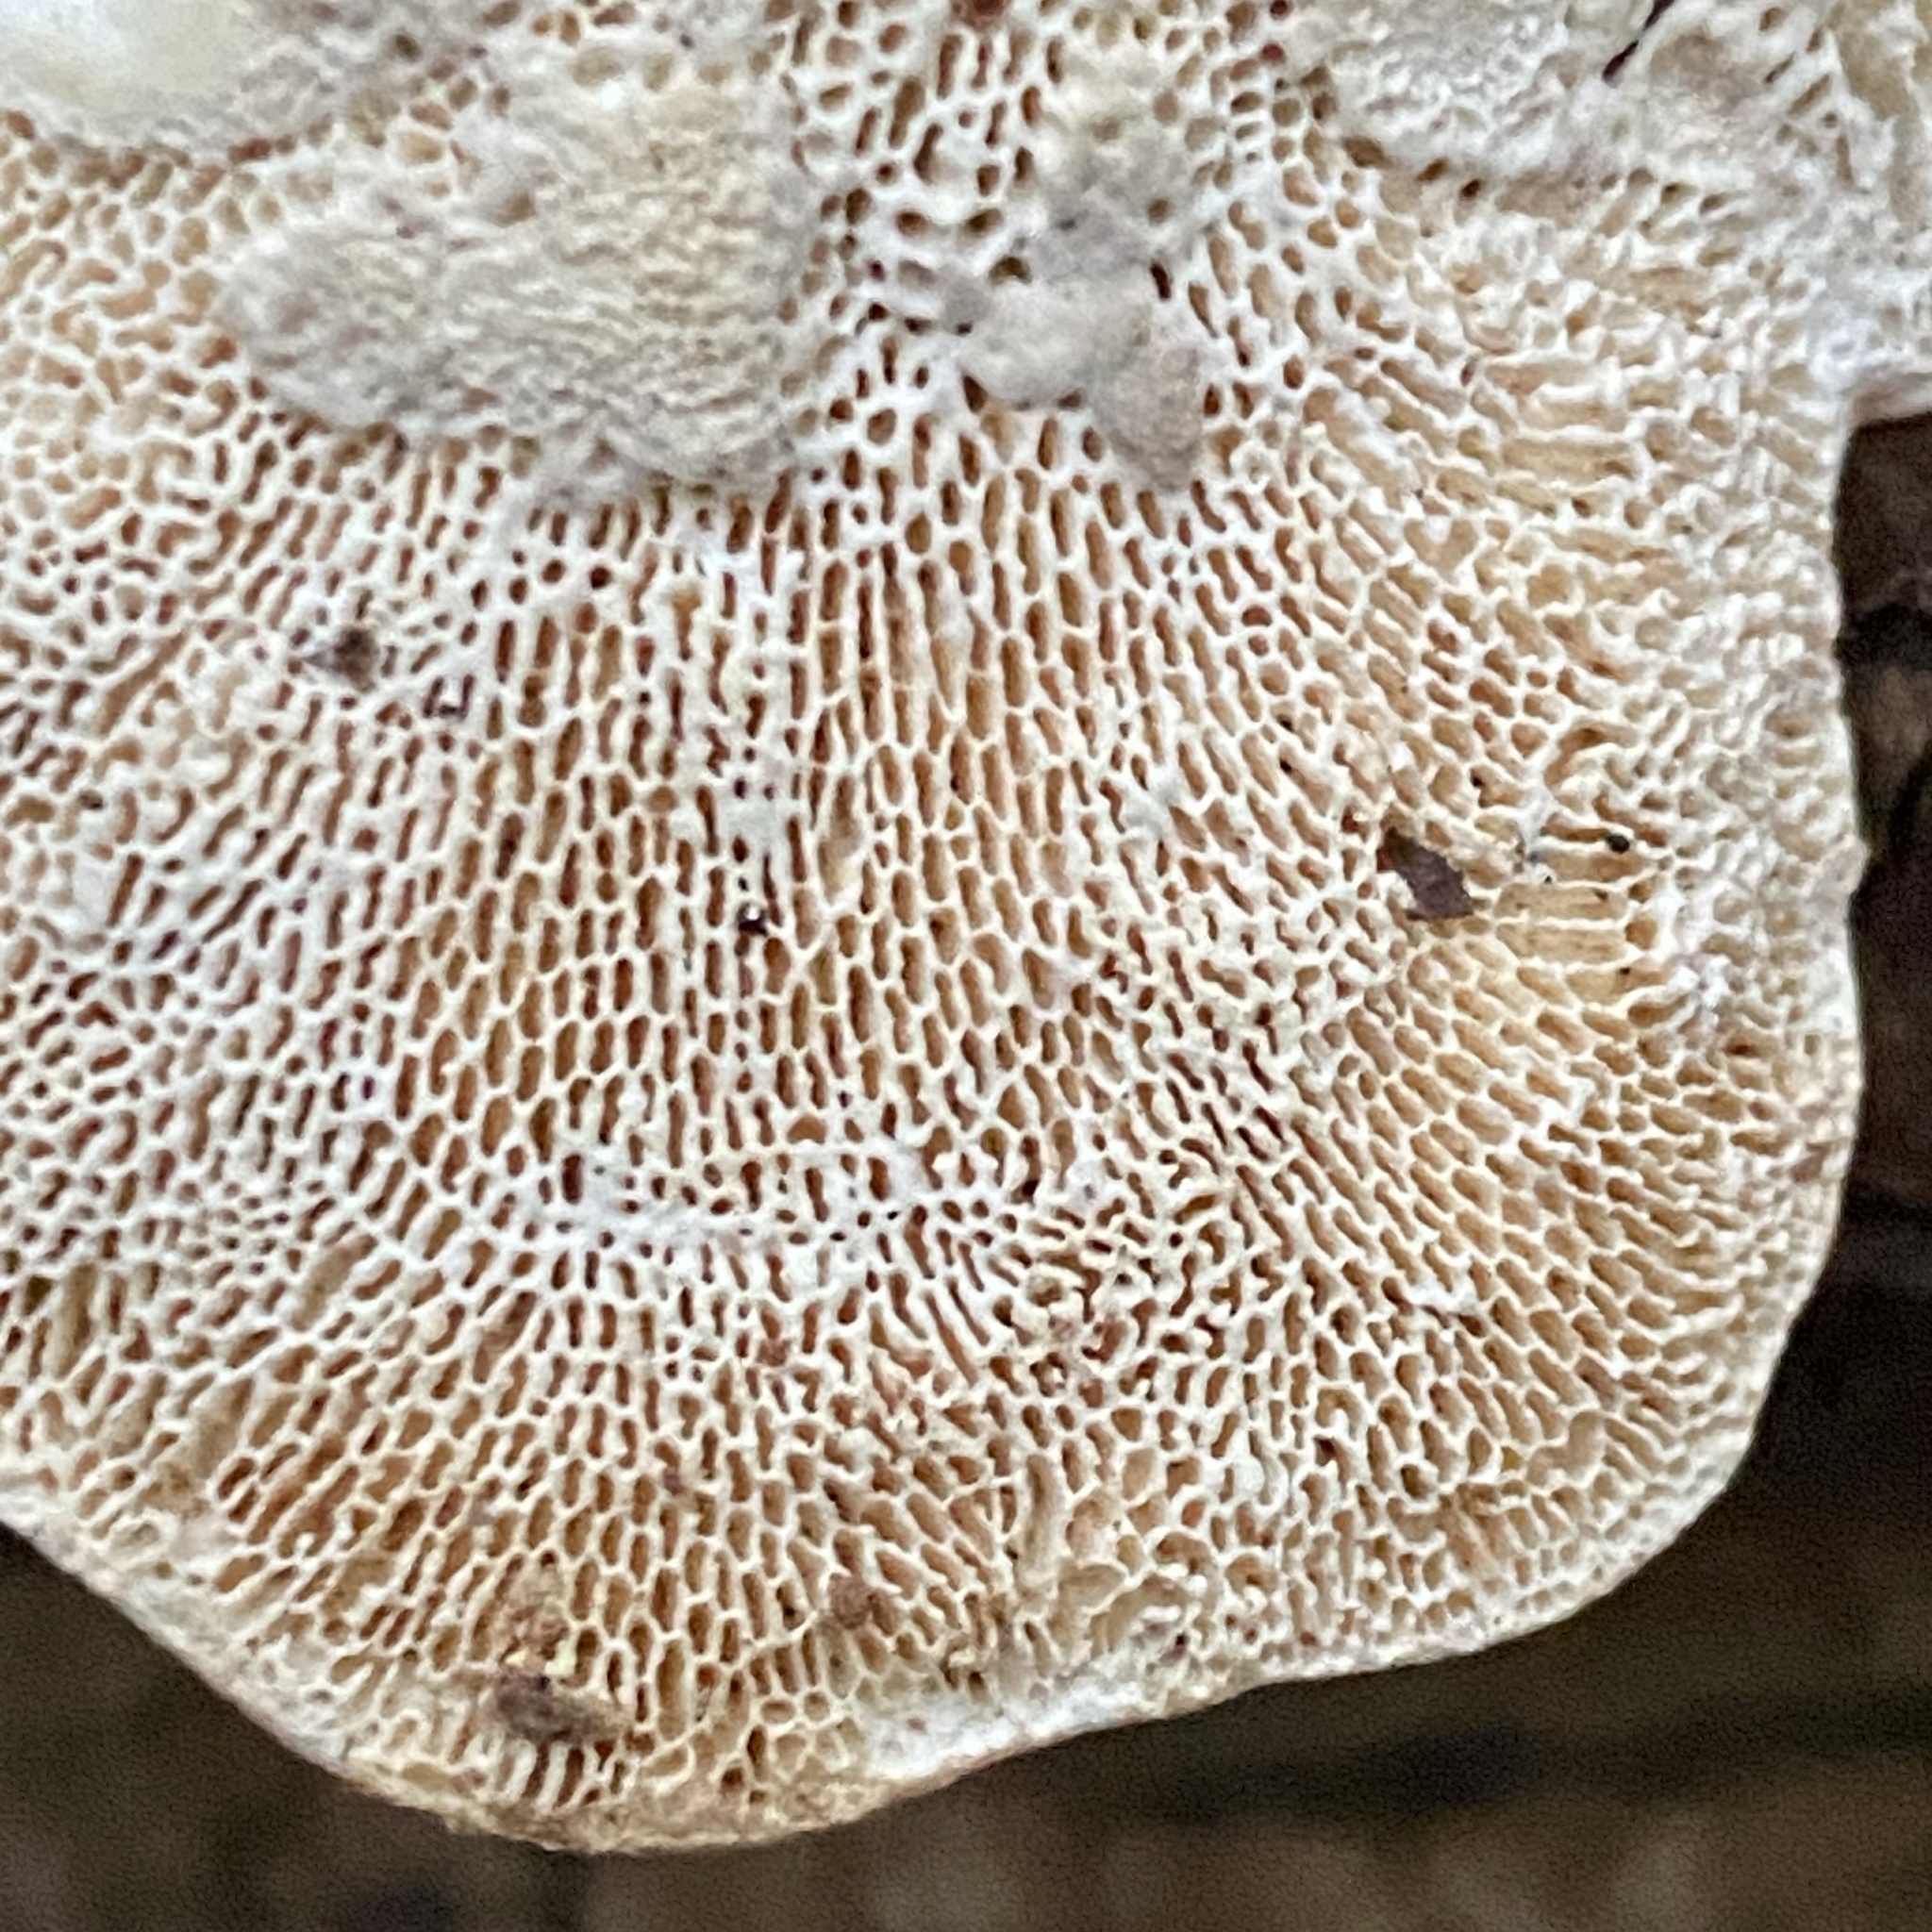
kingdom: Fungi
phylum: Basidiomycota
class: Agaricomycetes
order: Polyporales
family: Polyporaceae
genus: Trametes
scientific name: Trametes gibbosa
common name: Lumpy bracket
